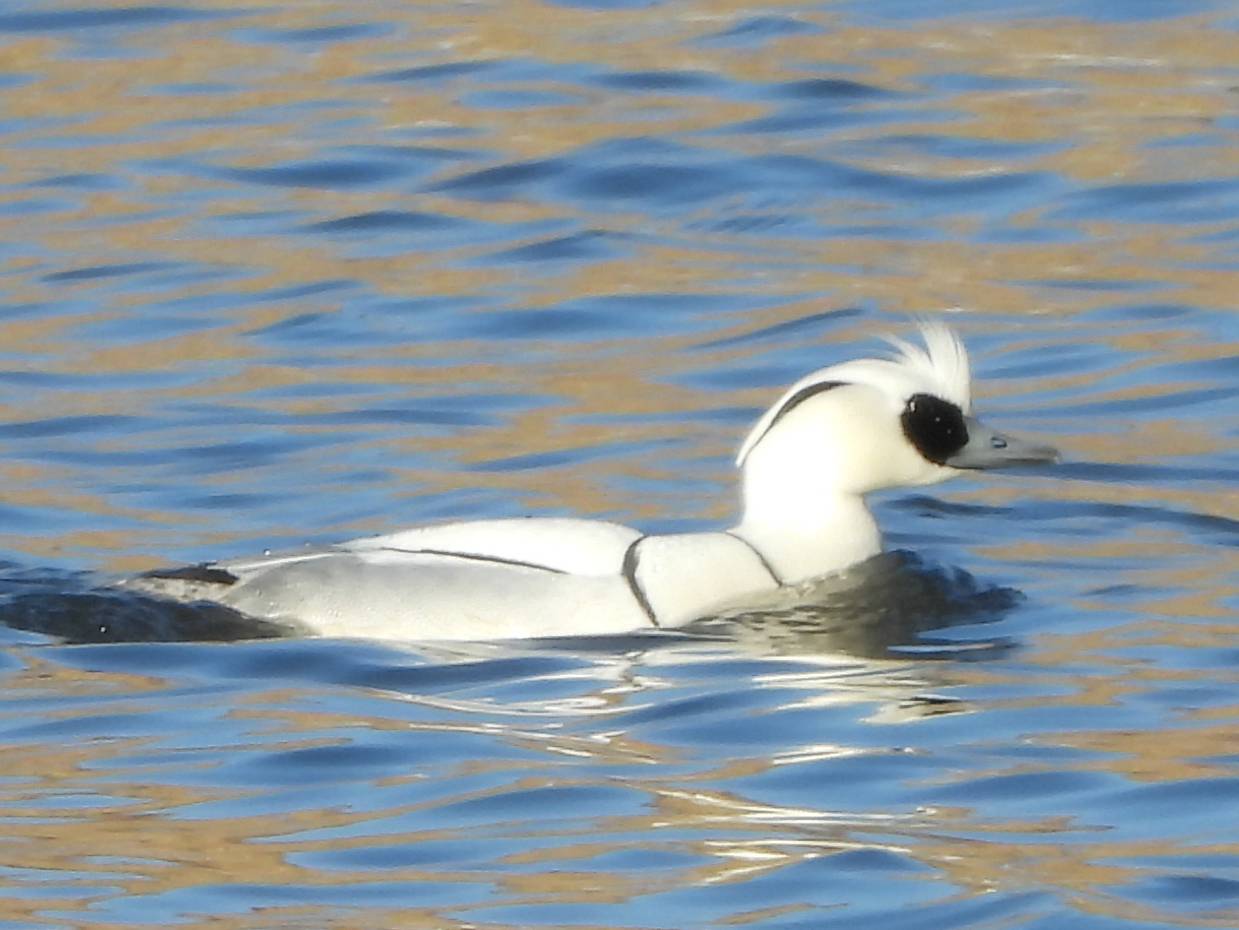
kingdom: Animalia
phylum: Chordata
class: Aves
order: Anseriformes
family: Anatidae
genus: Mergellus
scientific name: Mergellus albellus
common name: Smew
